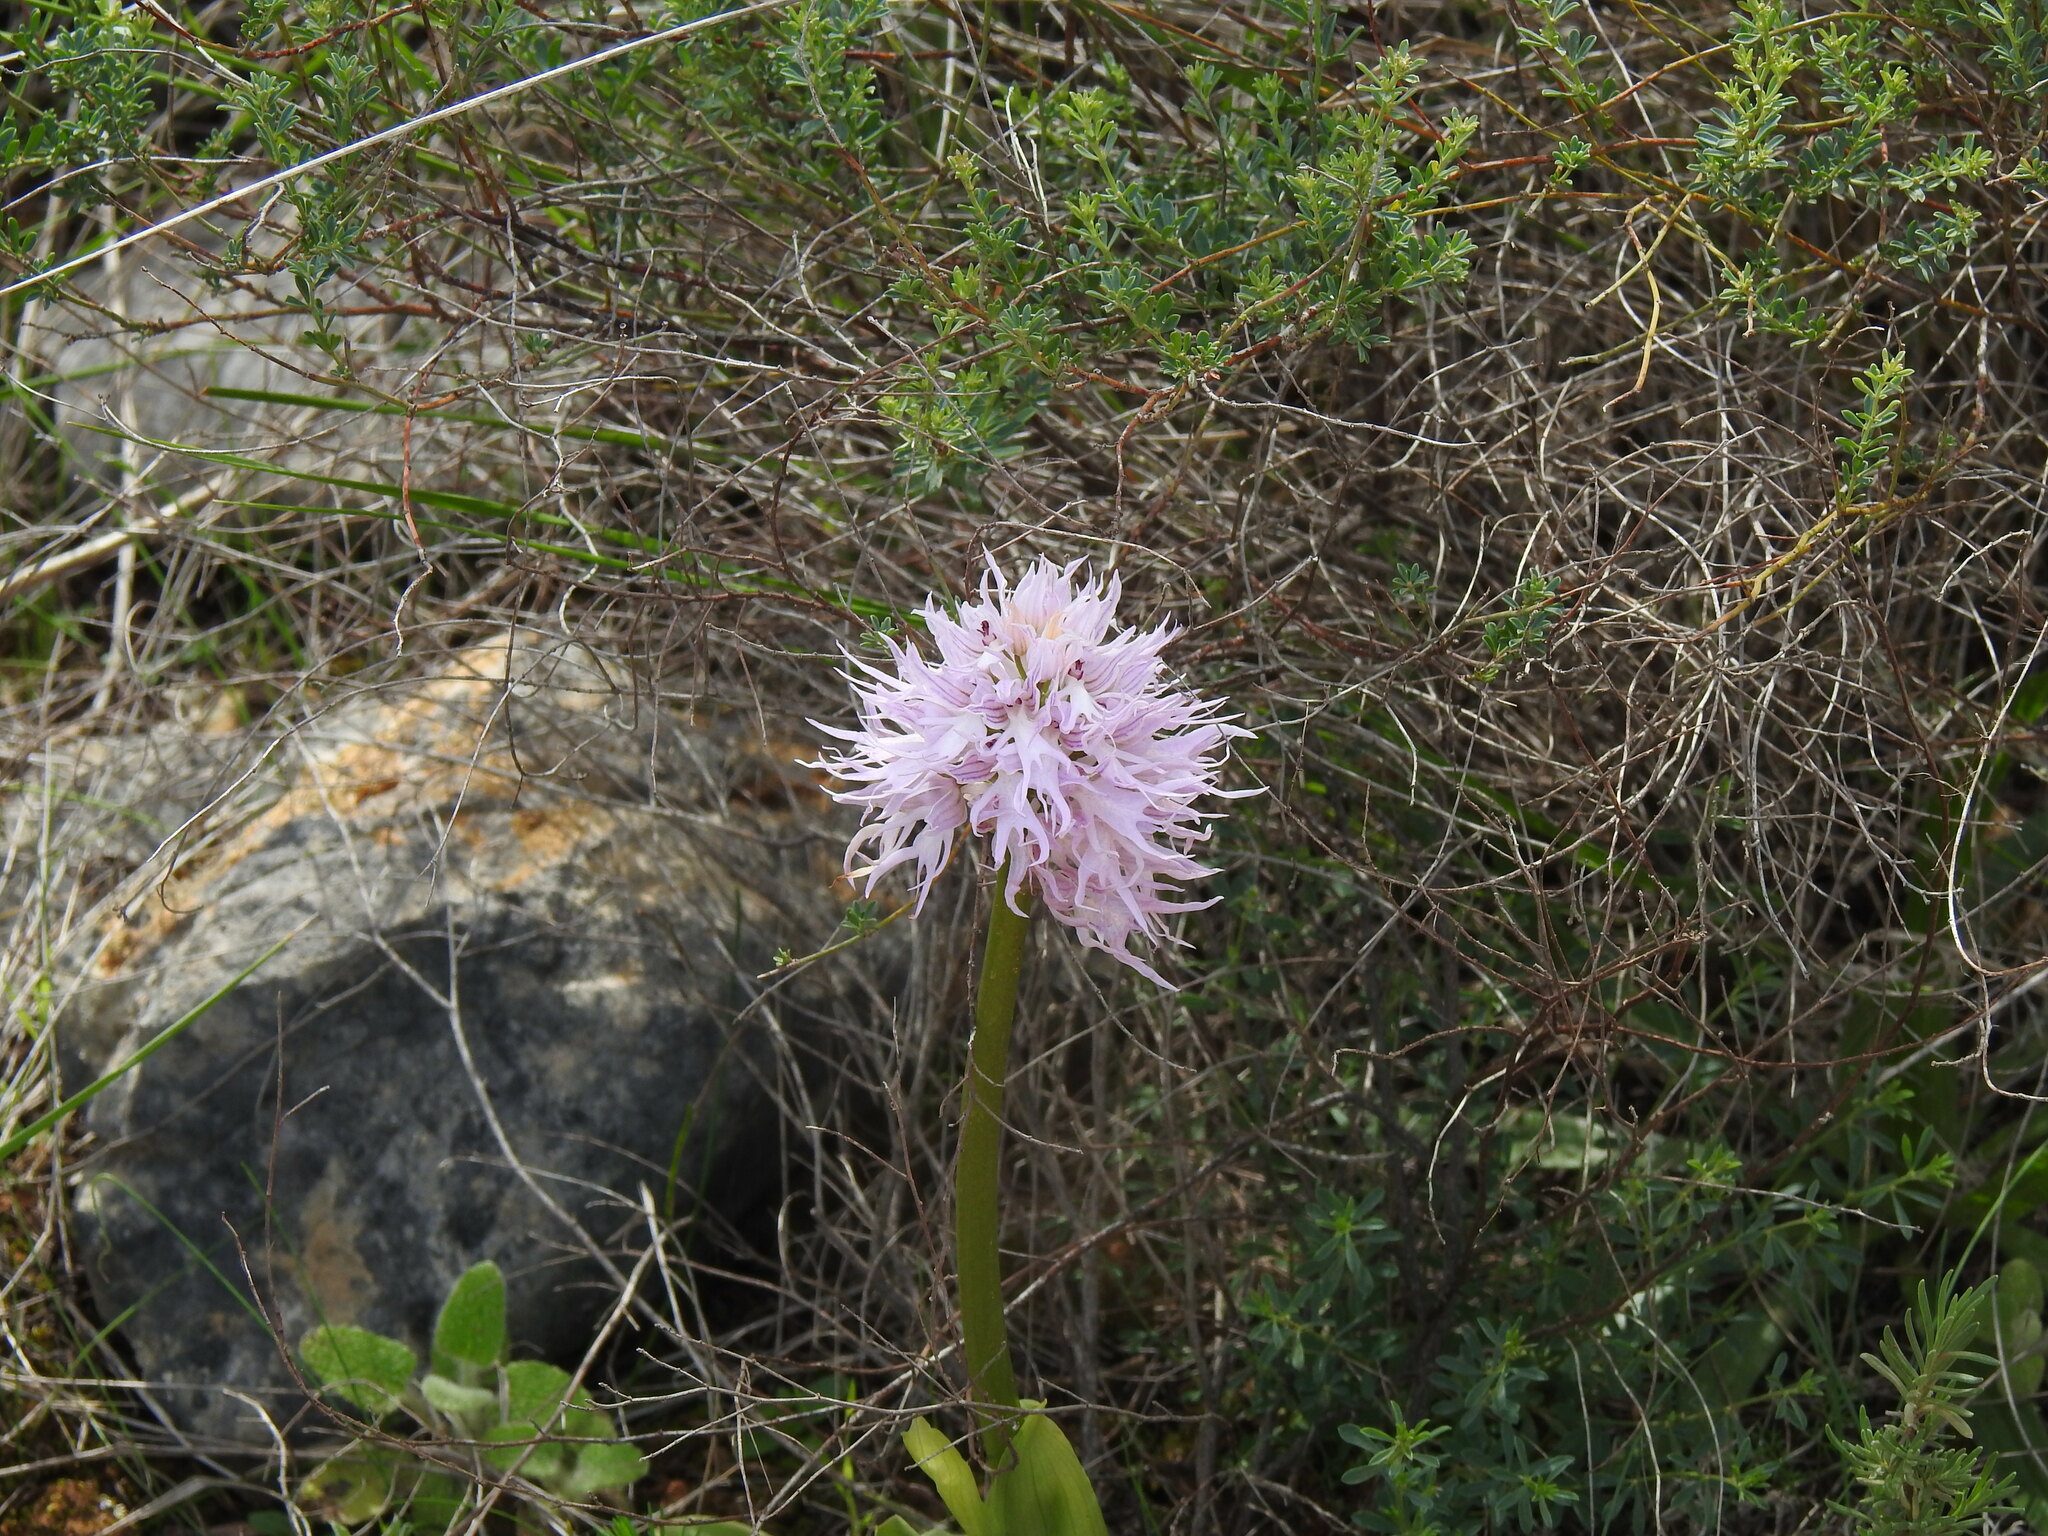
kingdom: Plantae
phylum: Tracheophyta
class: Liliopsida
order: Asparagales
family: Orchidaceae
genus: Orchis
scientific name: Orchis italica
